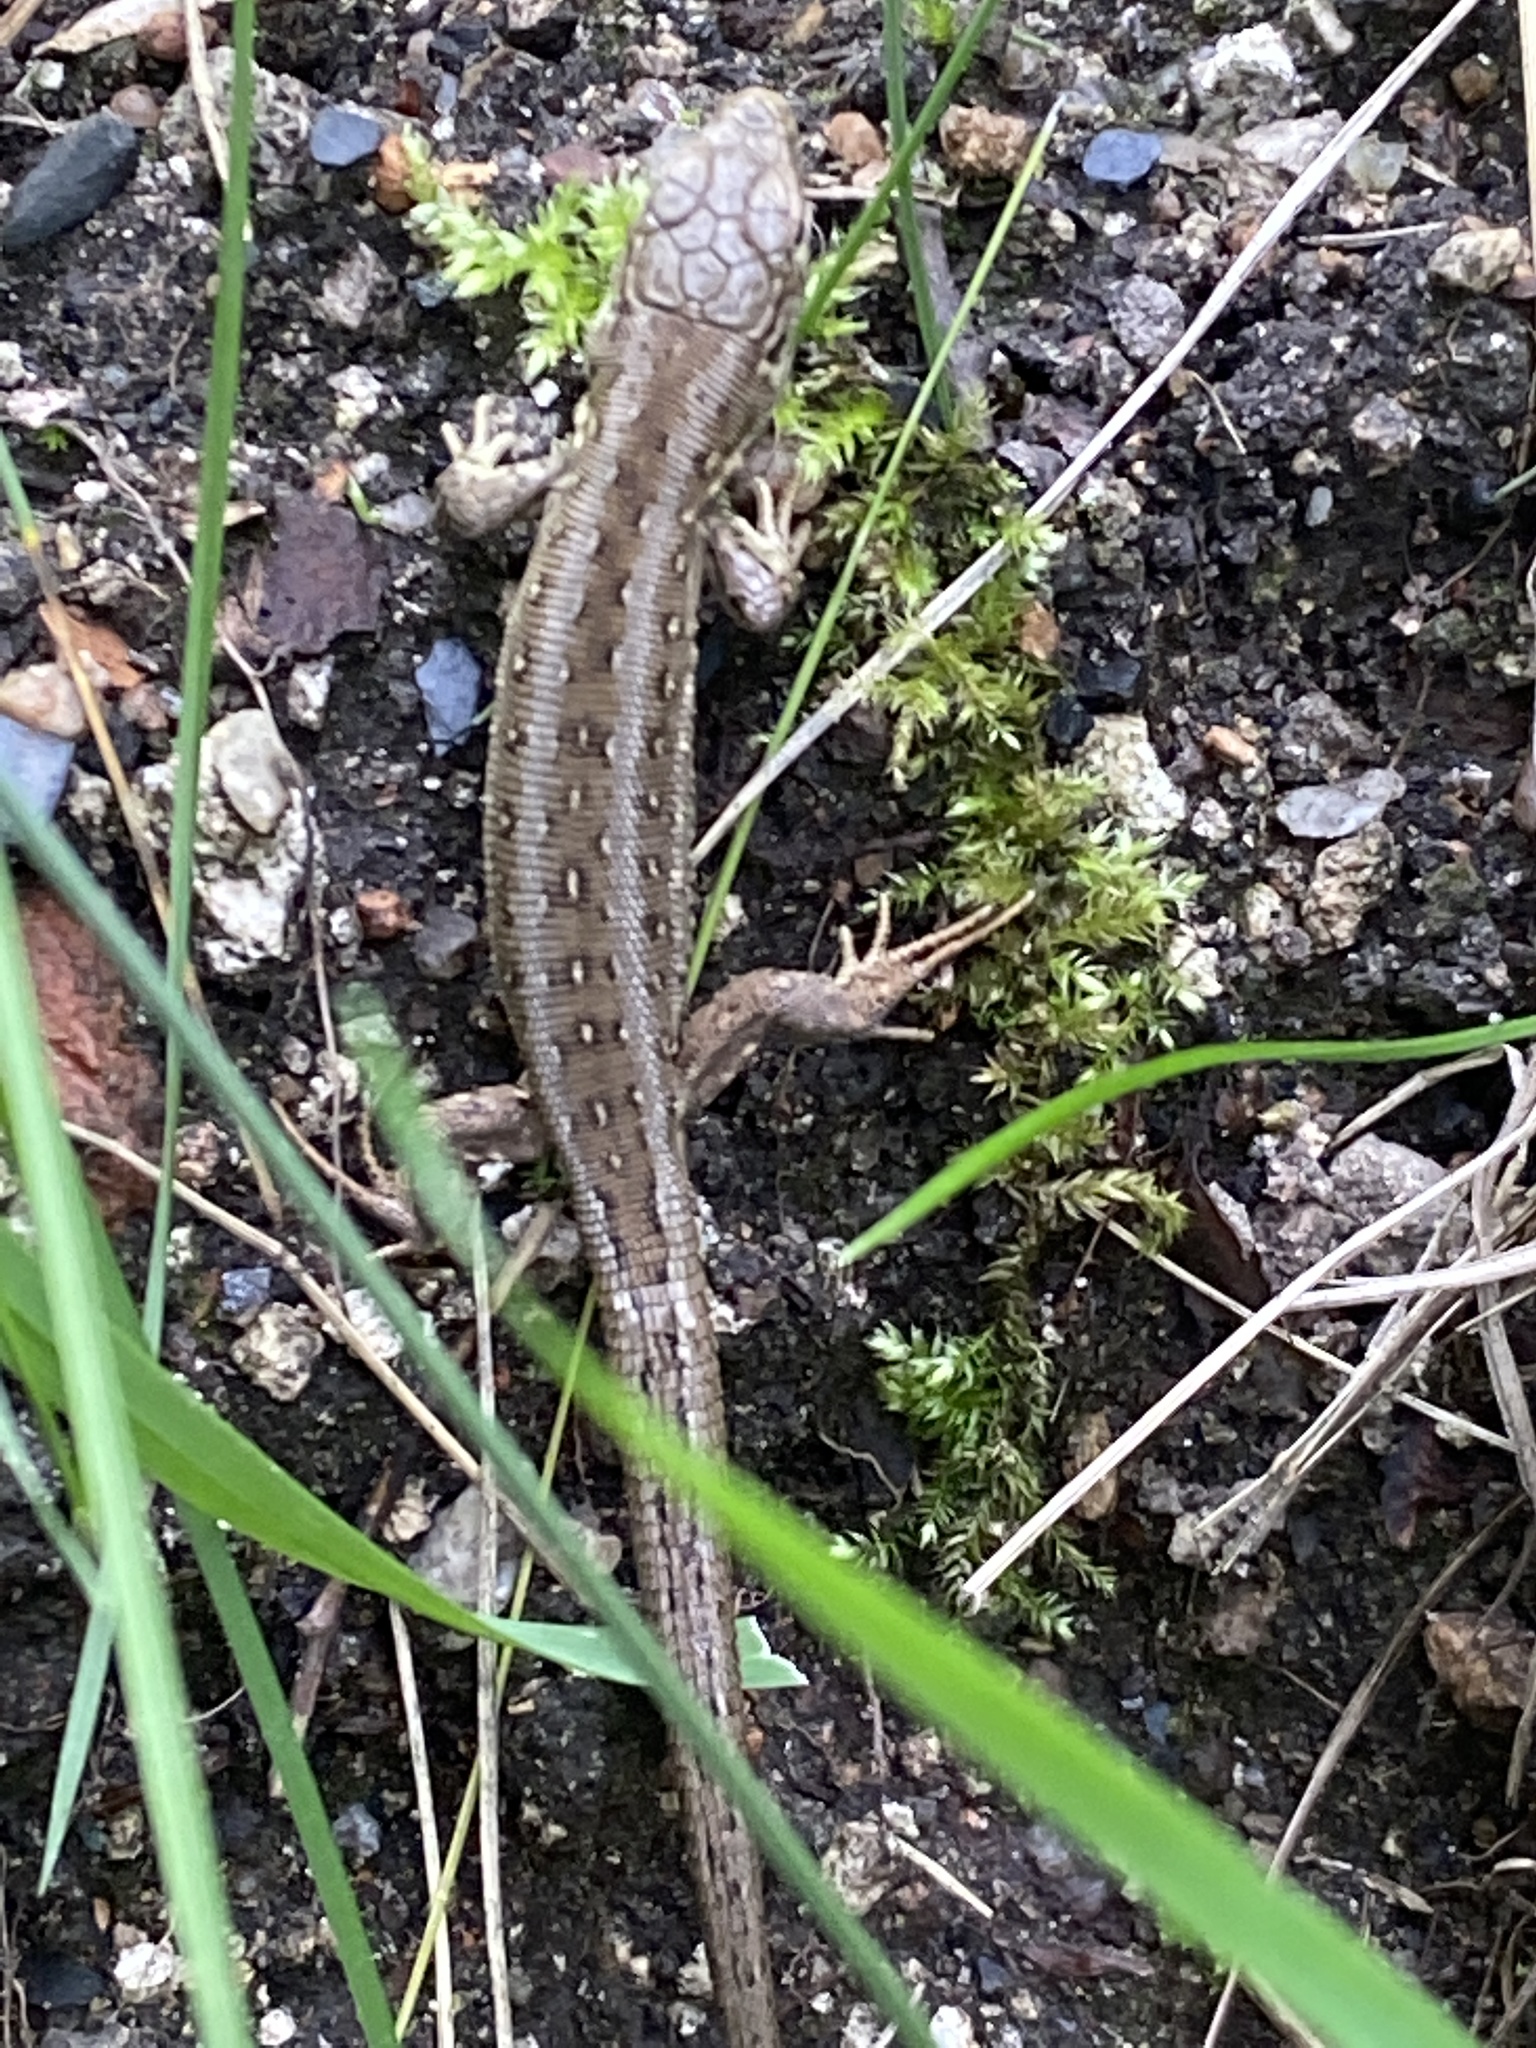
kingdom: Animalia
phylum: Chordata
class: Squamata
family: Lacertidae
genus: Lacerta
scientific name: Lacerta agilis
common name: Sand lizard
